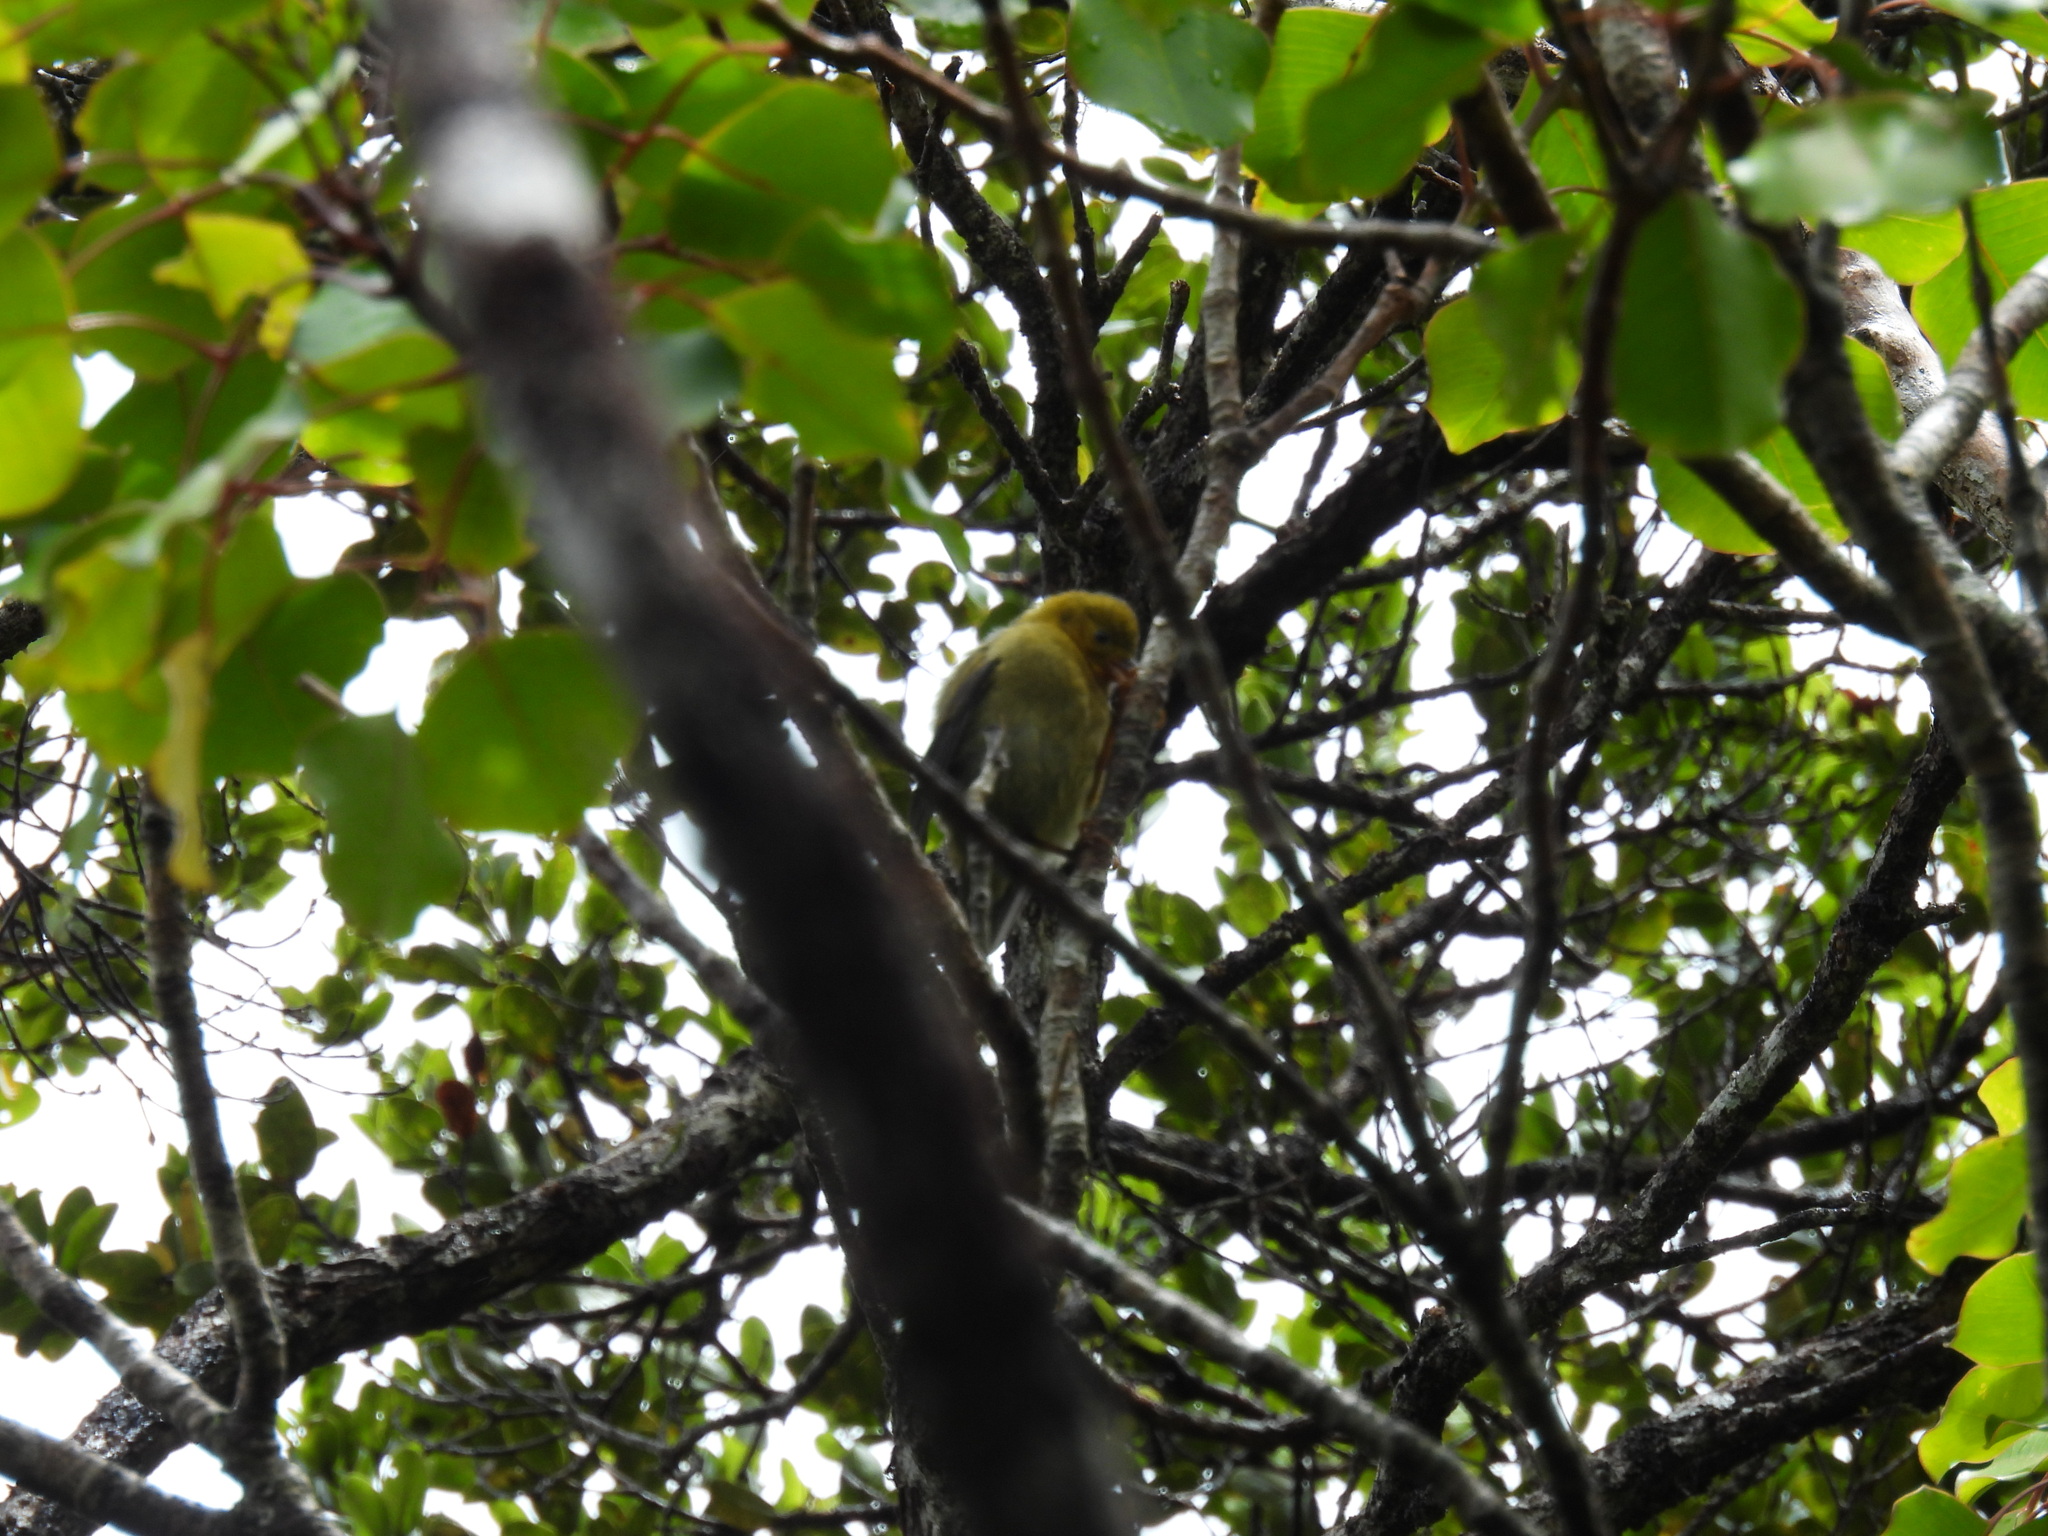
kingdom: Animalia
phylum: Chordata
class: Aves
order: Passeriformes
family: Fringillidae
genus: Vestiaria
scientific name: Vestiaria coccinea
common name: Iiwi
